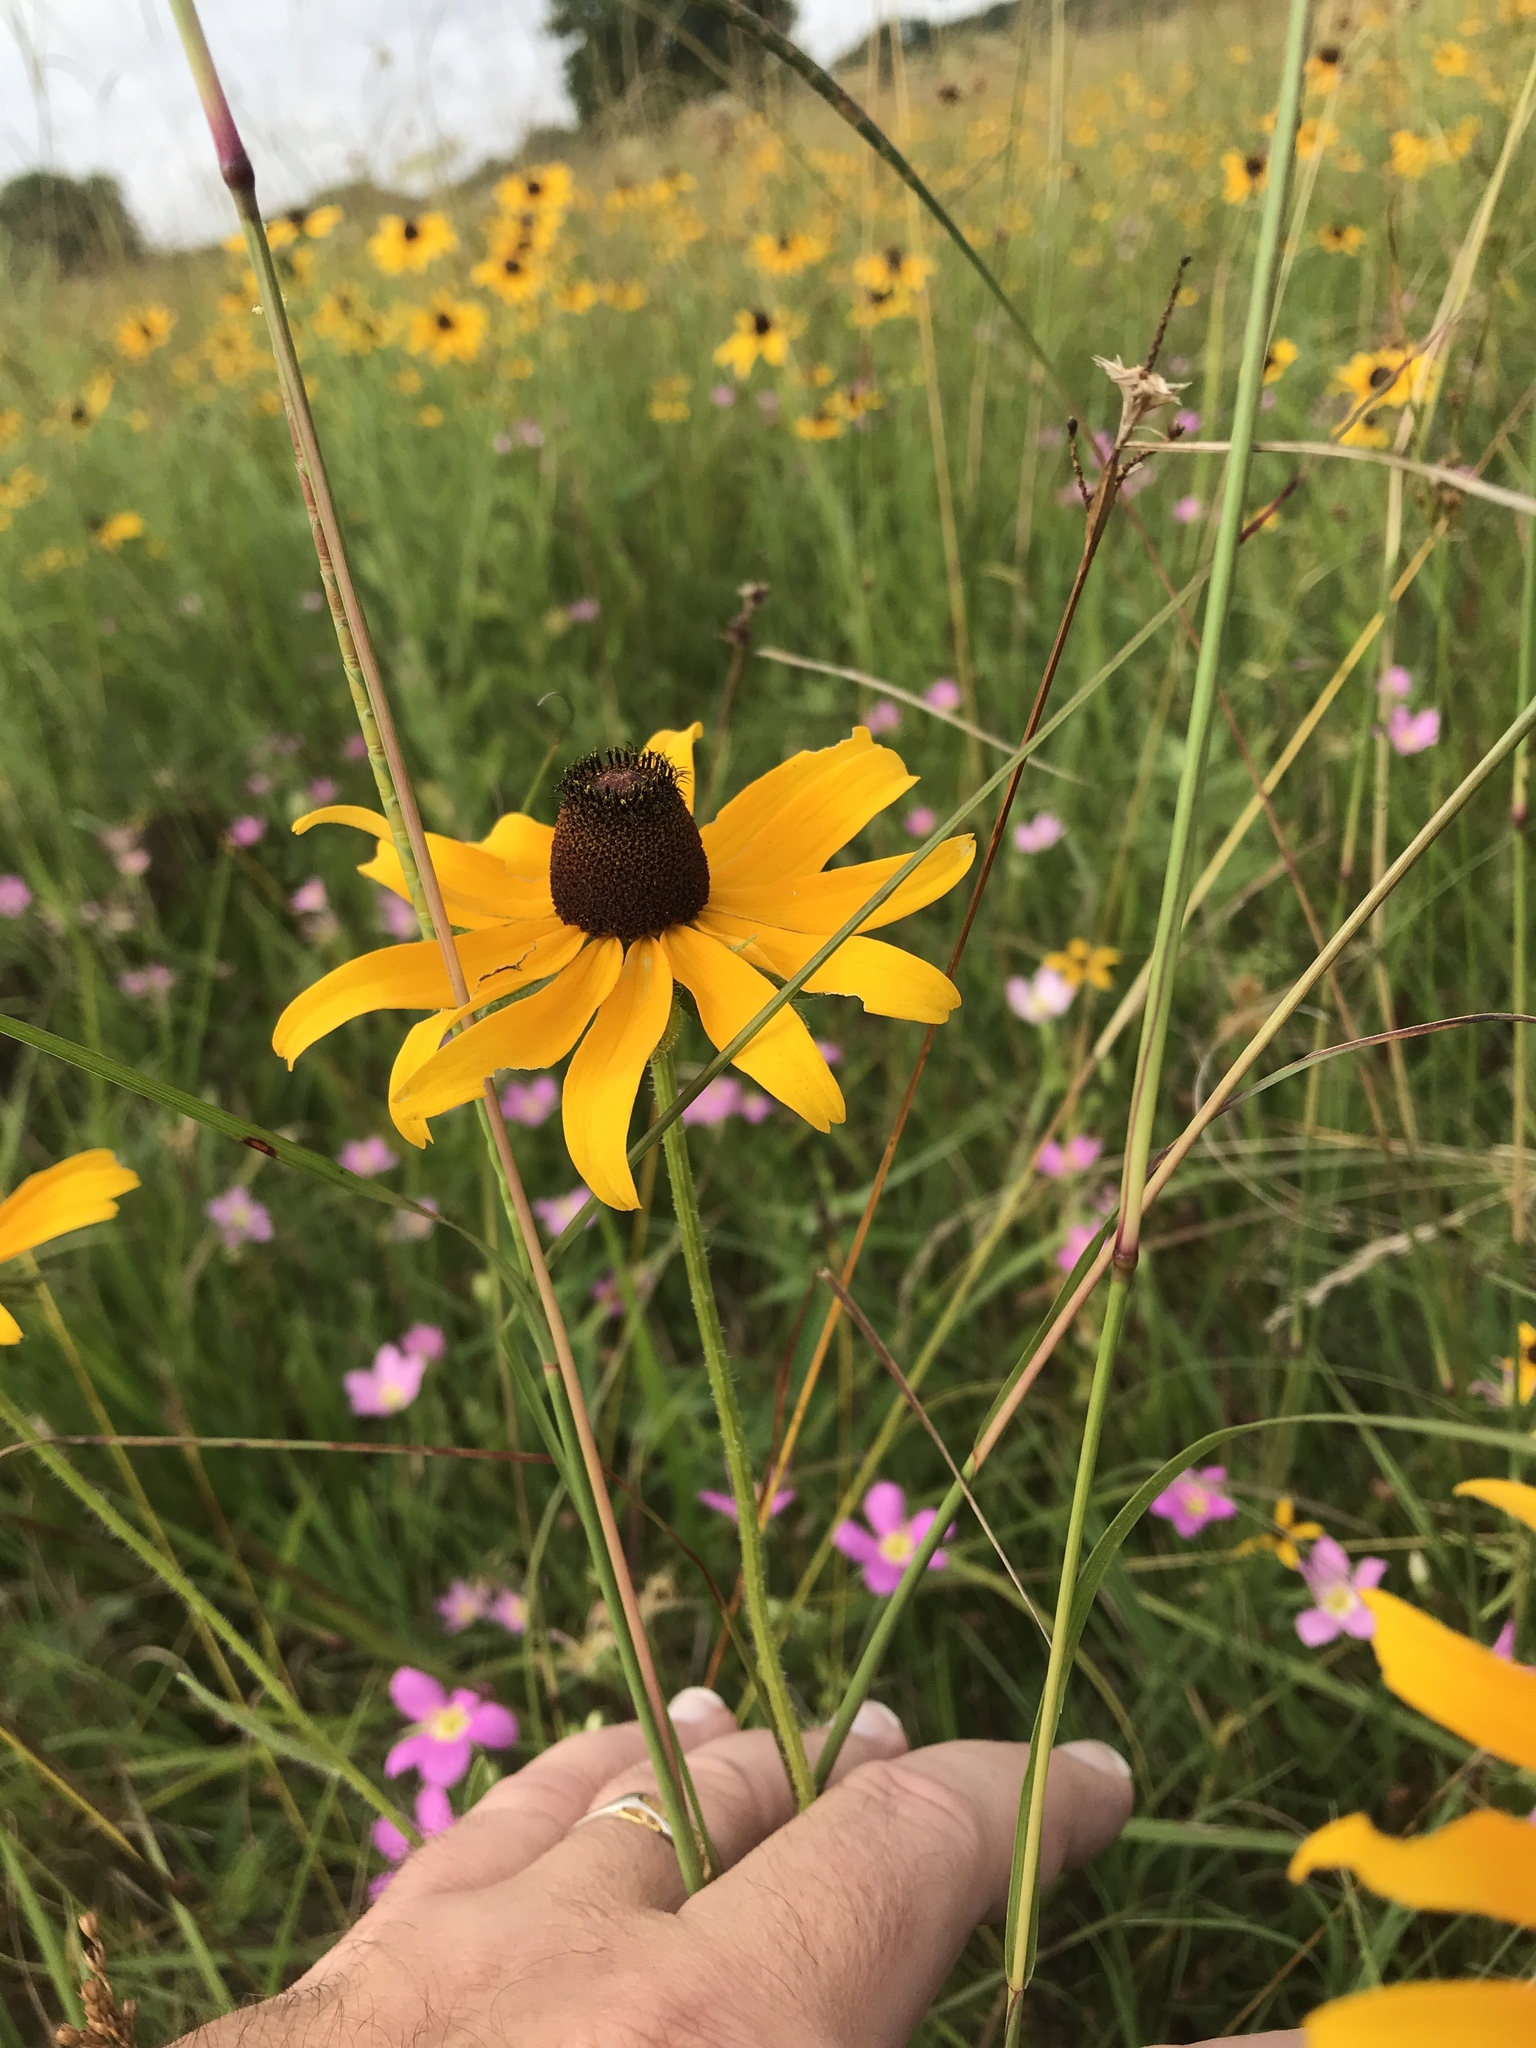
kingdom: Plantae
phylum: Tracheophyta
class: Magnoliopsida
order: Asterales
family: Asteraceae
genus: Rudbeckia
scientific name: Rudbeckia hirta
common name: Black-eyed-susan
